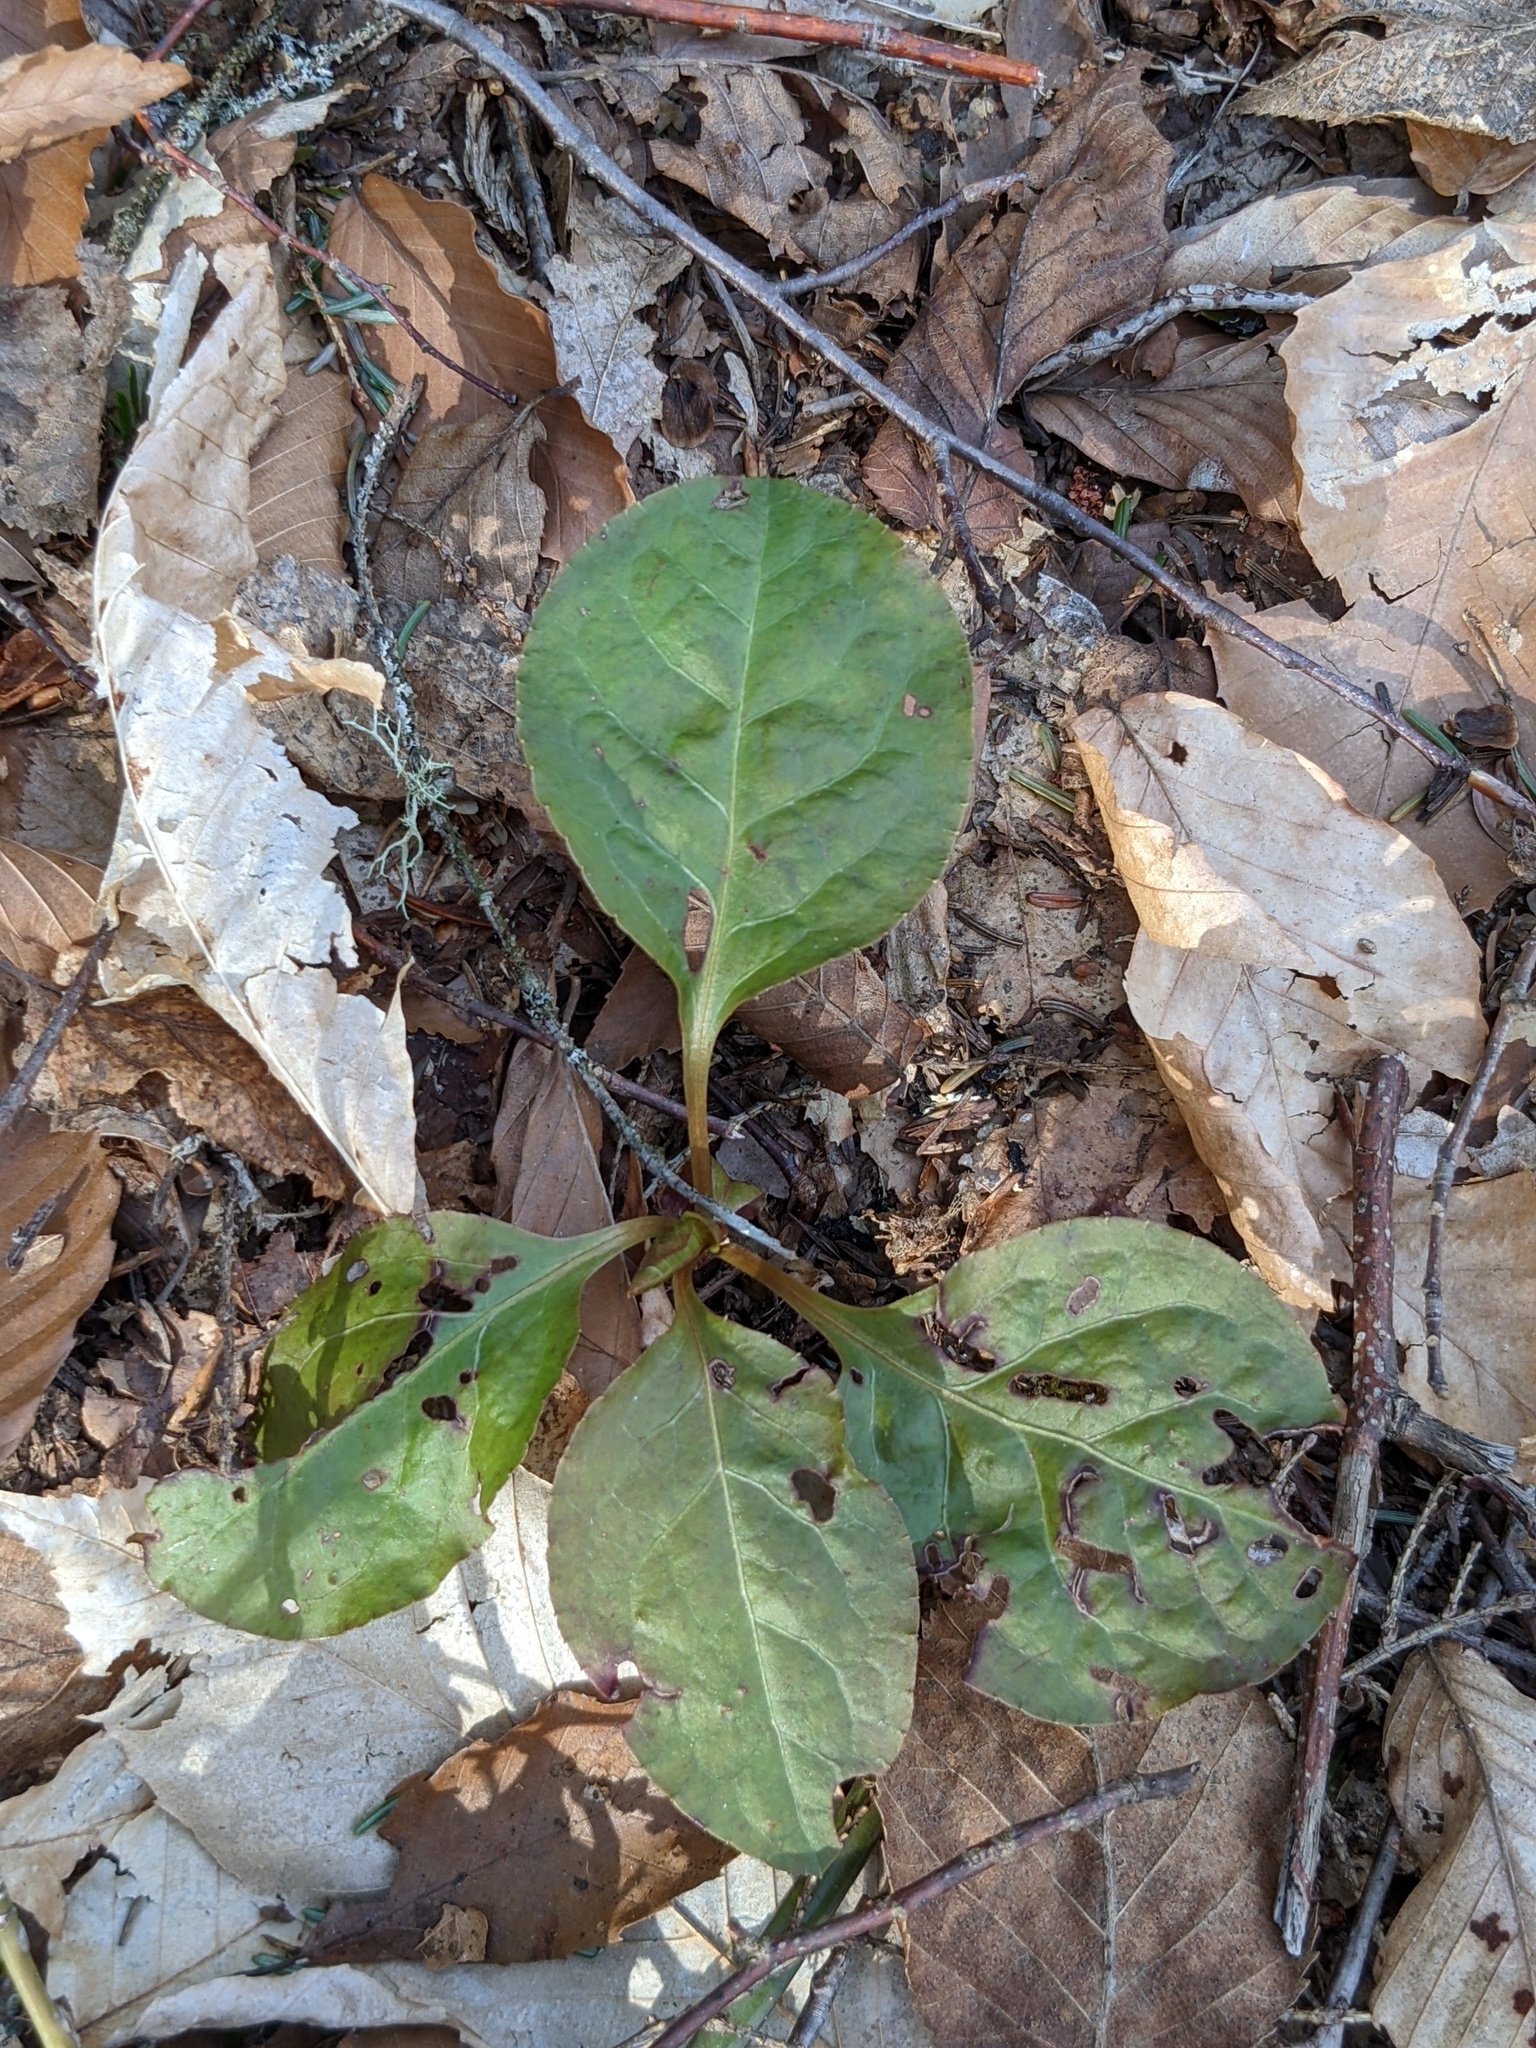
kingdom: Plantae
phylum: Tracheophyta
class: Magnoliopsida
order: Ericales
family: Ericaceae
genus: Pyrola
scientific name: Pyrola elliptica
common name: Shinleaf
